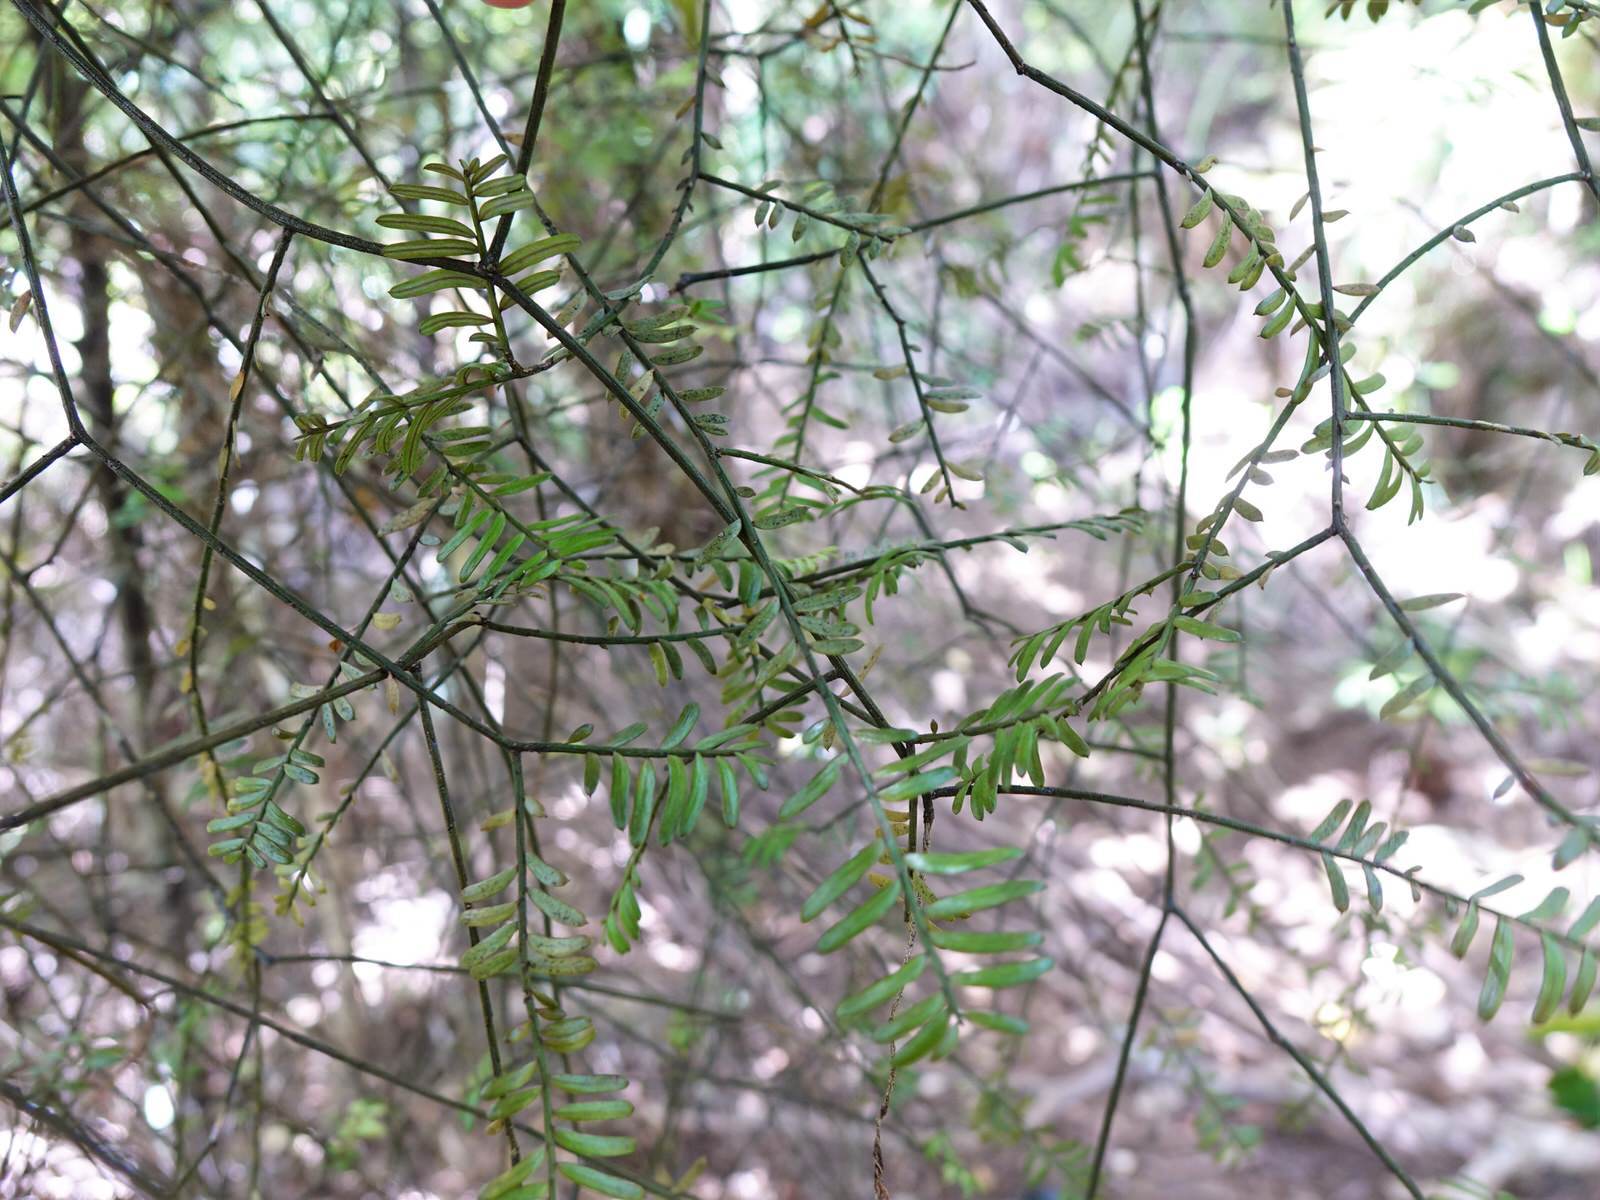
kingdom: Plantae
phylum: Tracheophyta
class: Pinopsida
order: Pinales
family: Podocarpaceae
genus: Prumnopitys
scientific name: Prumnopitys taxifolia
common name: Matai
